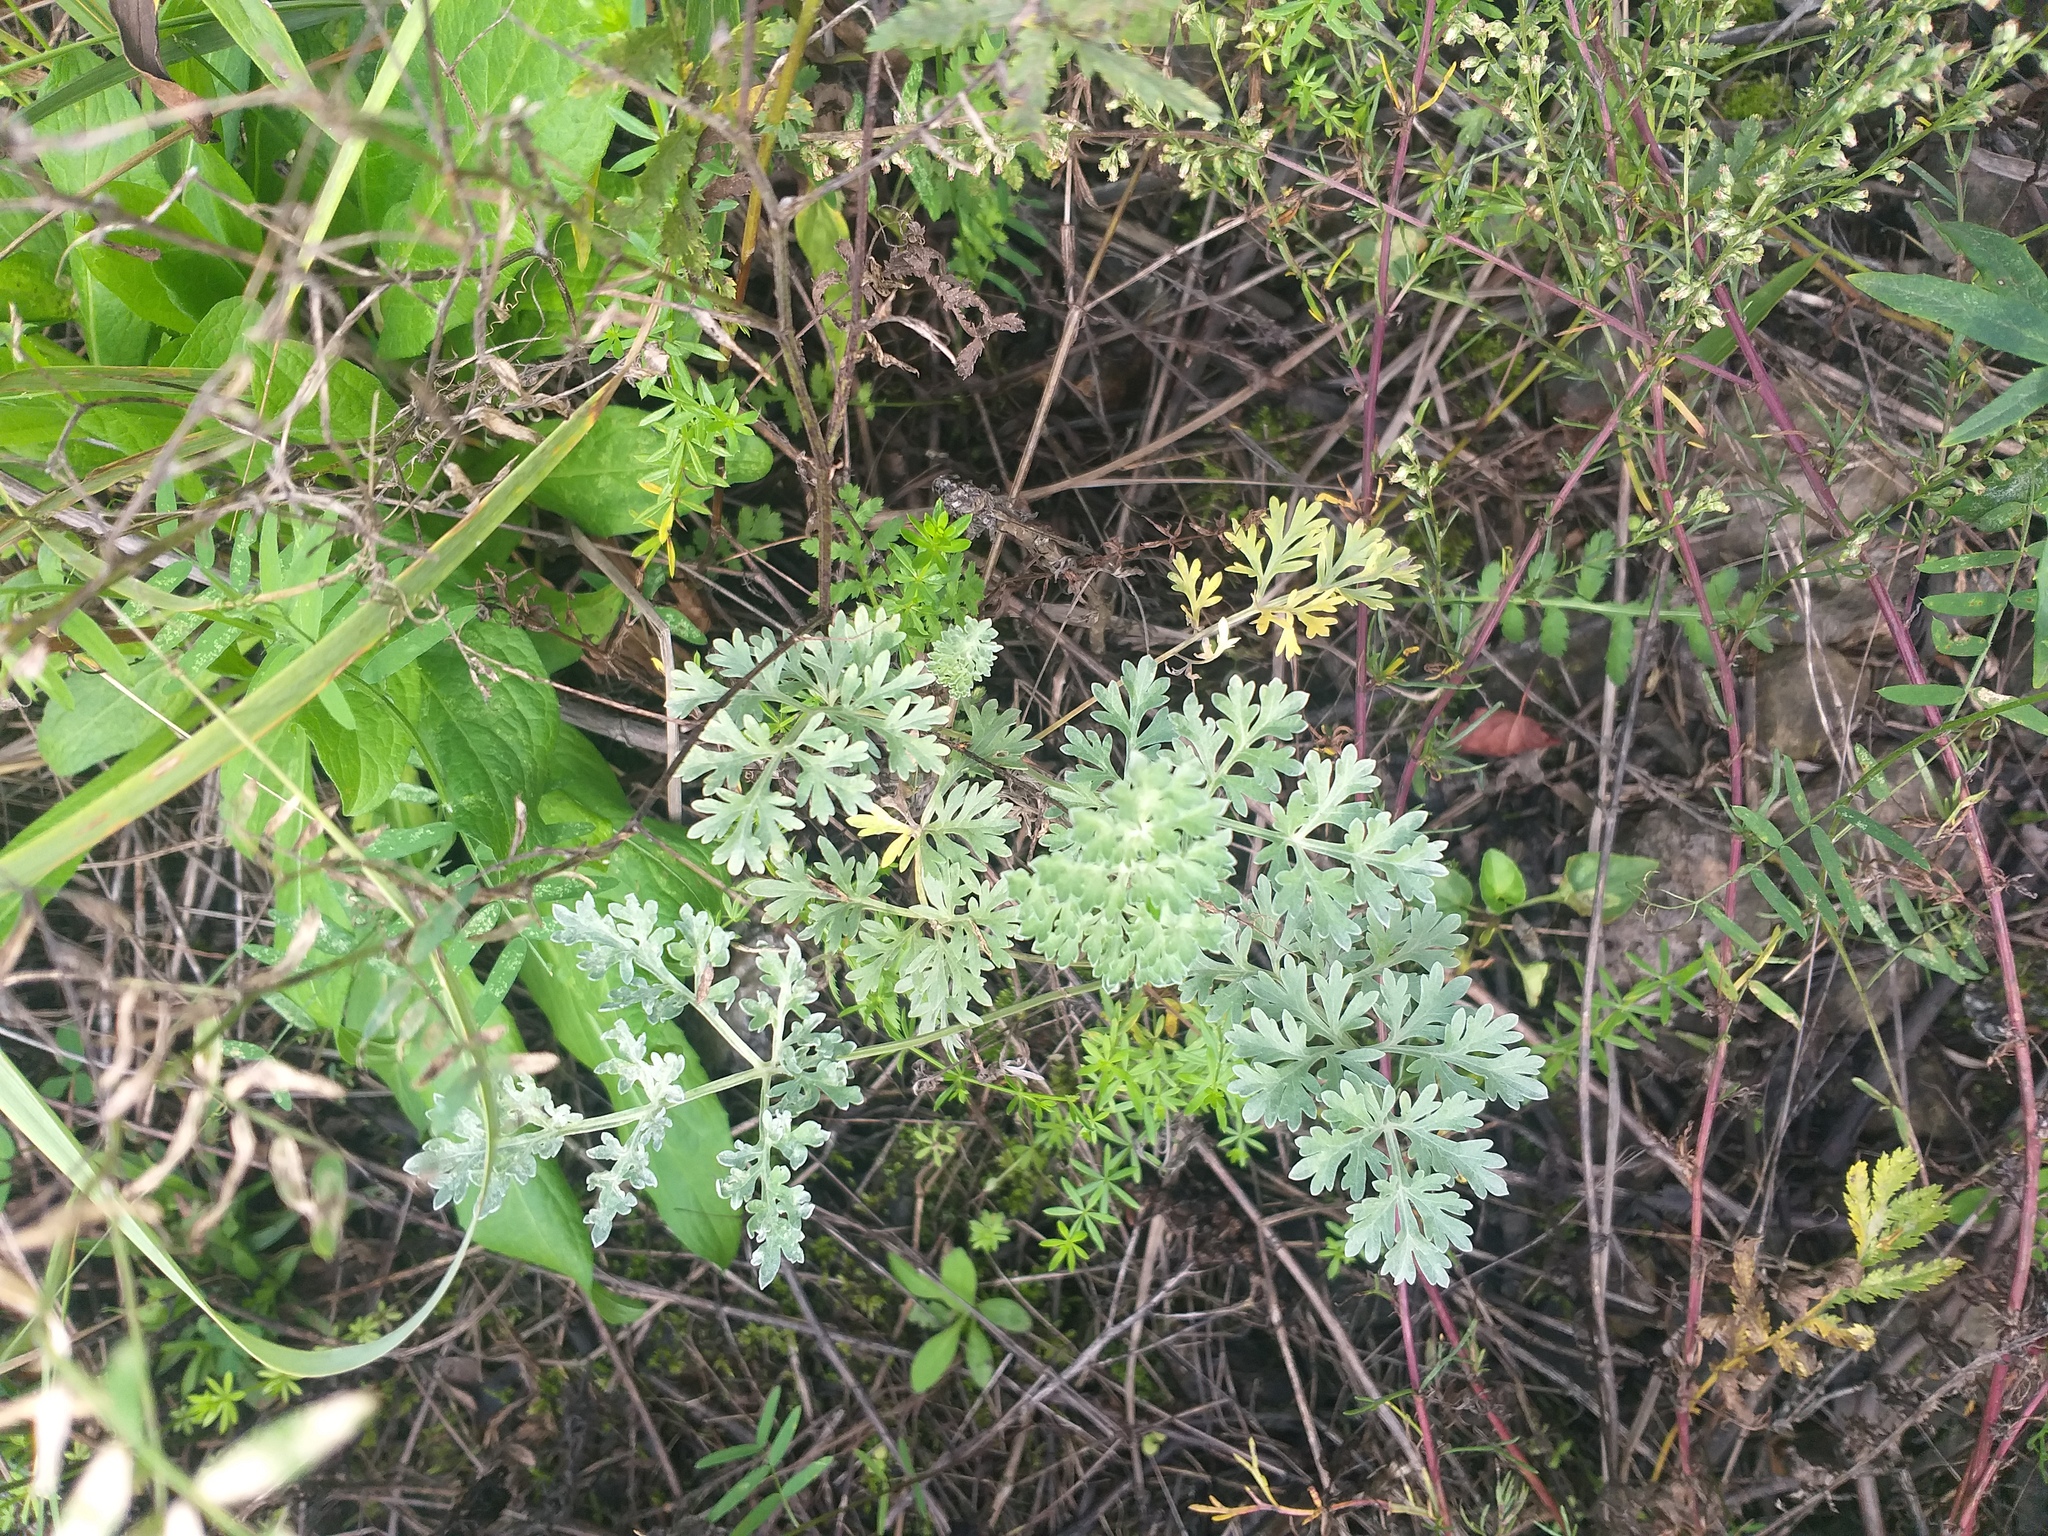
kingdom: Plantae
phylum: Tracheophyta
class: Magnoliopsida
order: Asterales
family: Asteraceae
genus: Artemisia
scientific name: Artemisia absinthium
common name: Wormwood
